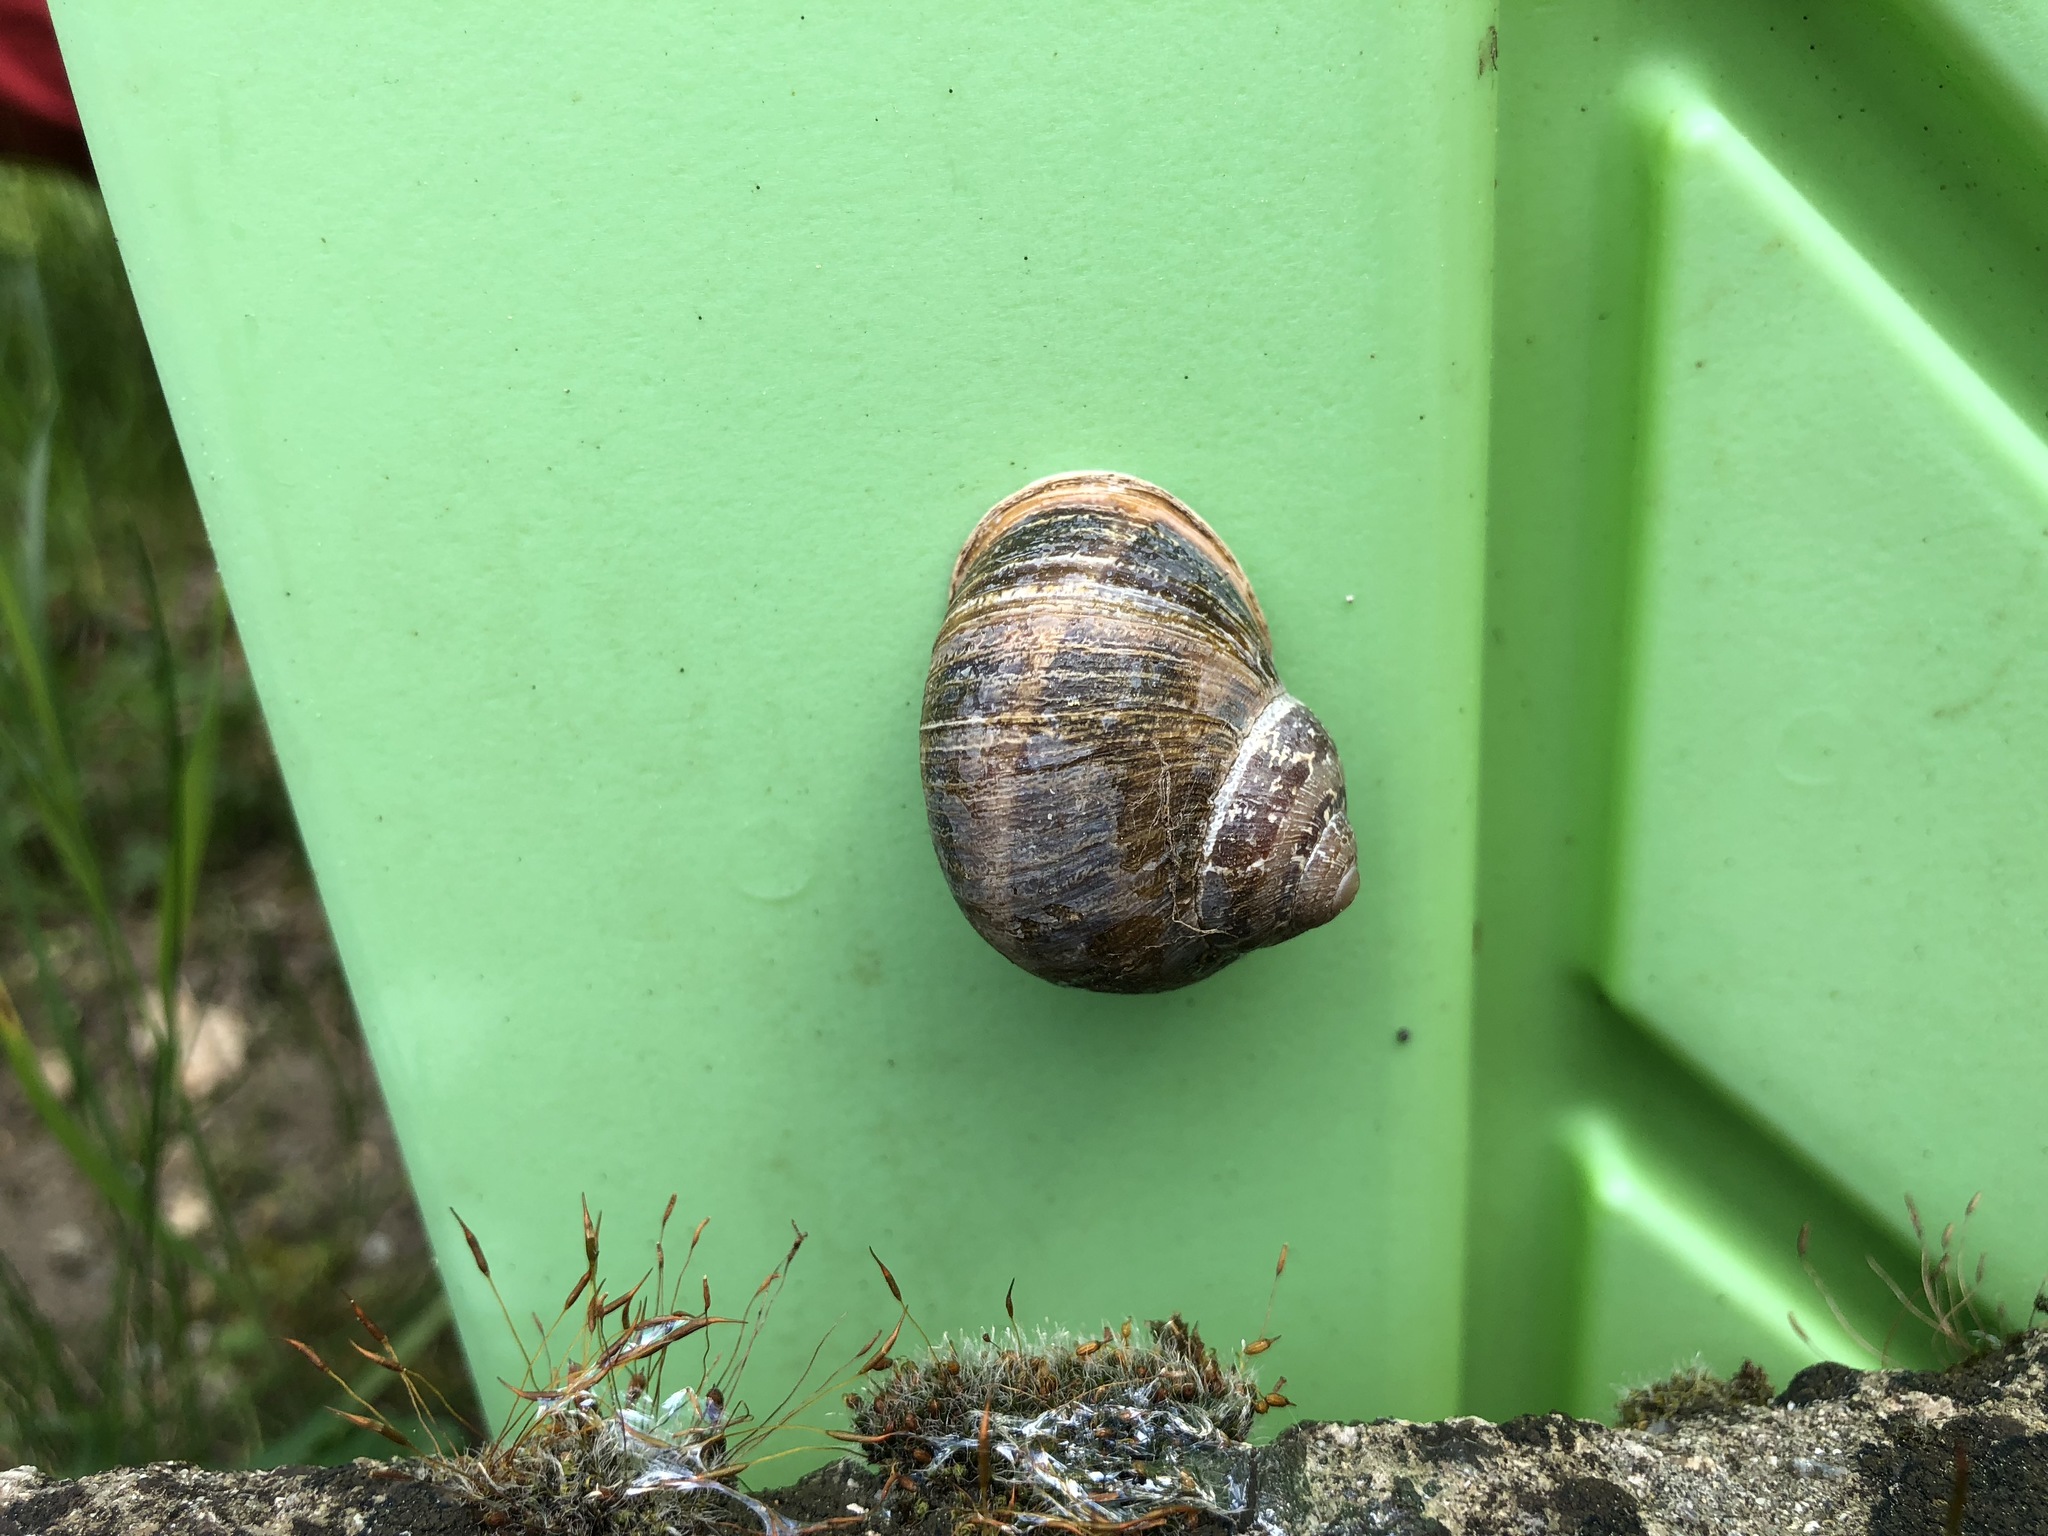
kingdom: Animalia
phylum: Mollusca
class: Gastropoda
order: Stylommatophora
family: Helicidae
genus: Cornu
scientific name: Cornu aspersum
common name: Brown garden snail
